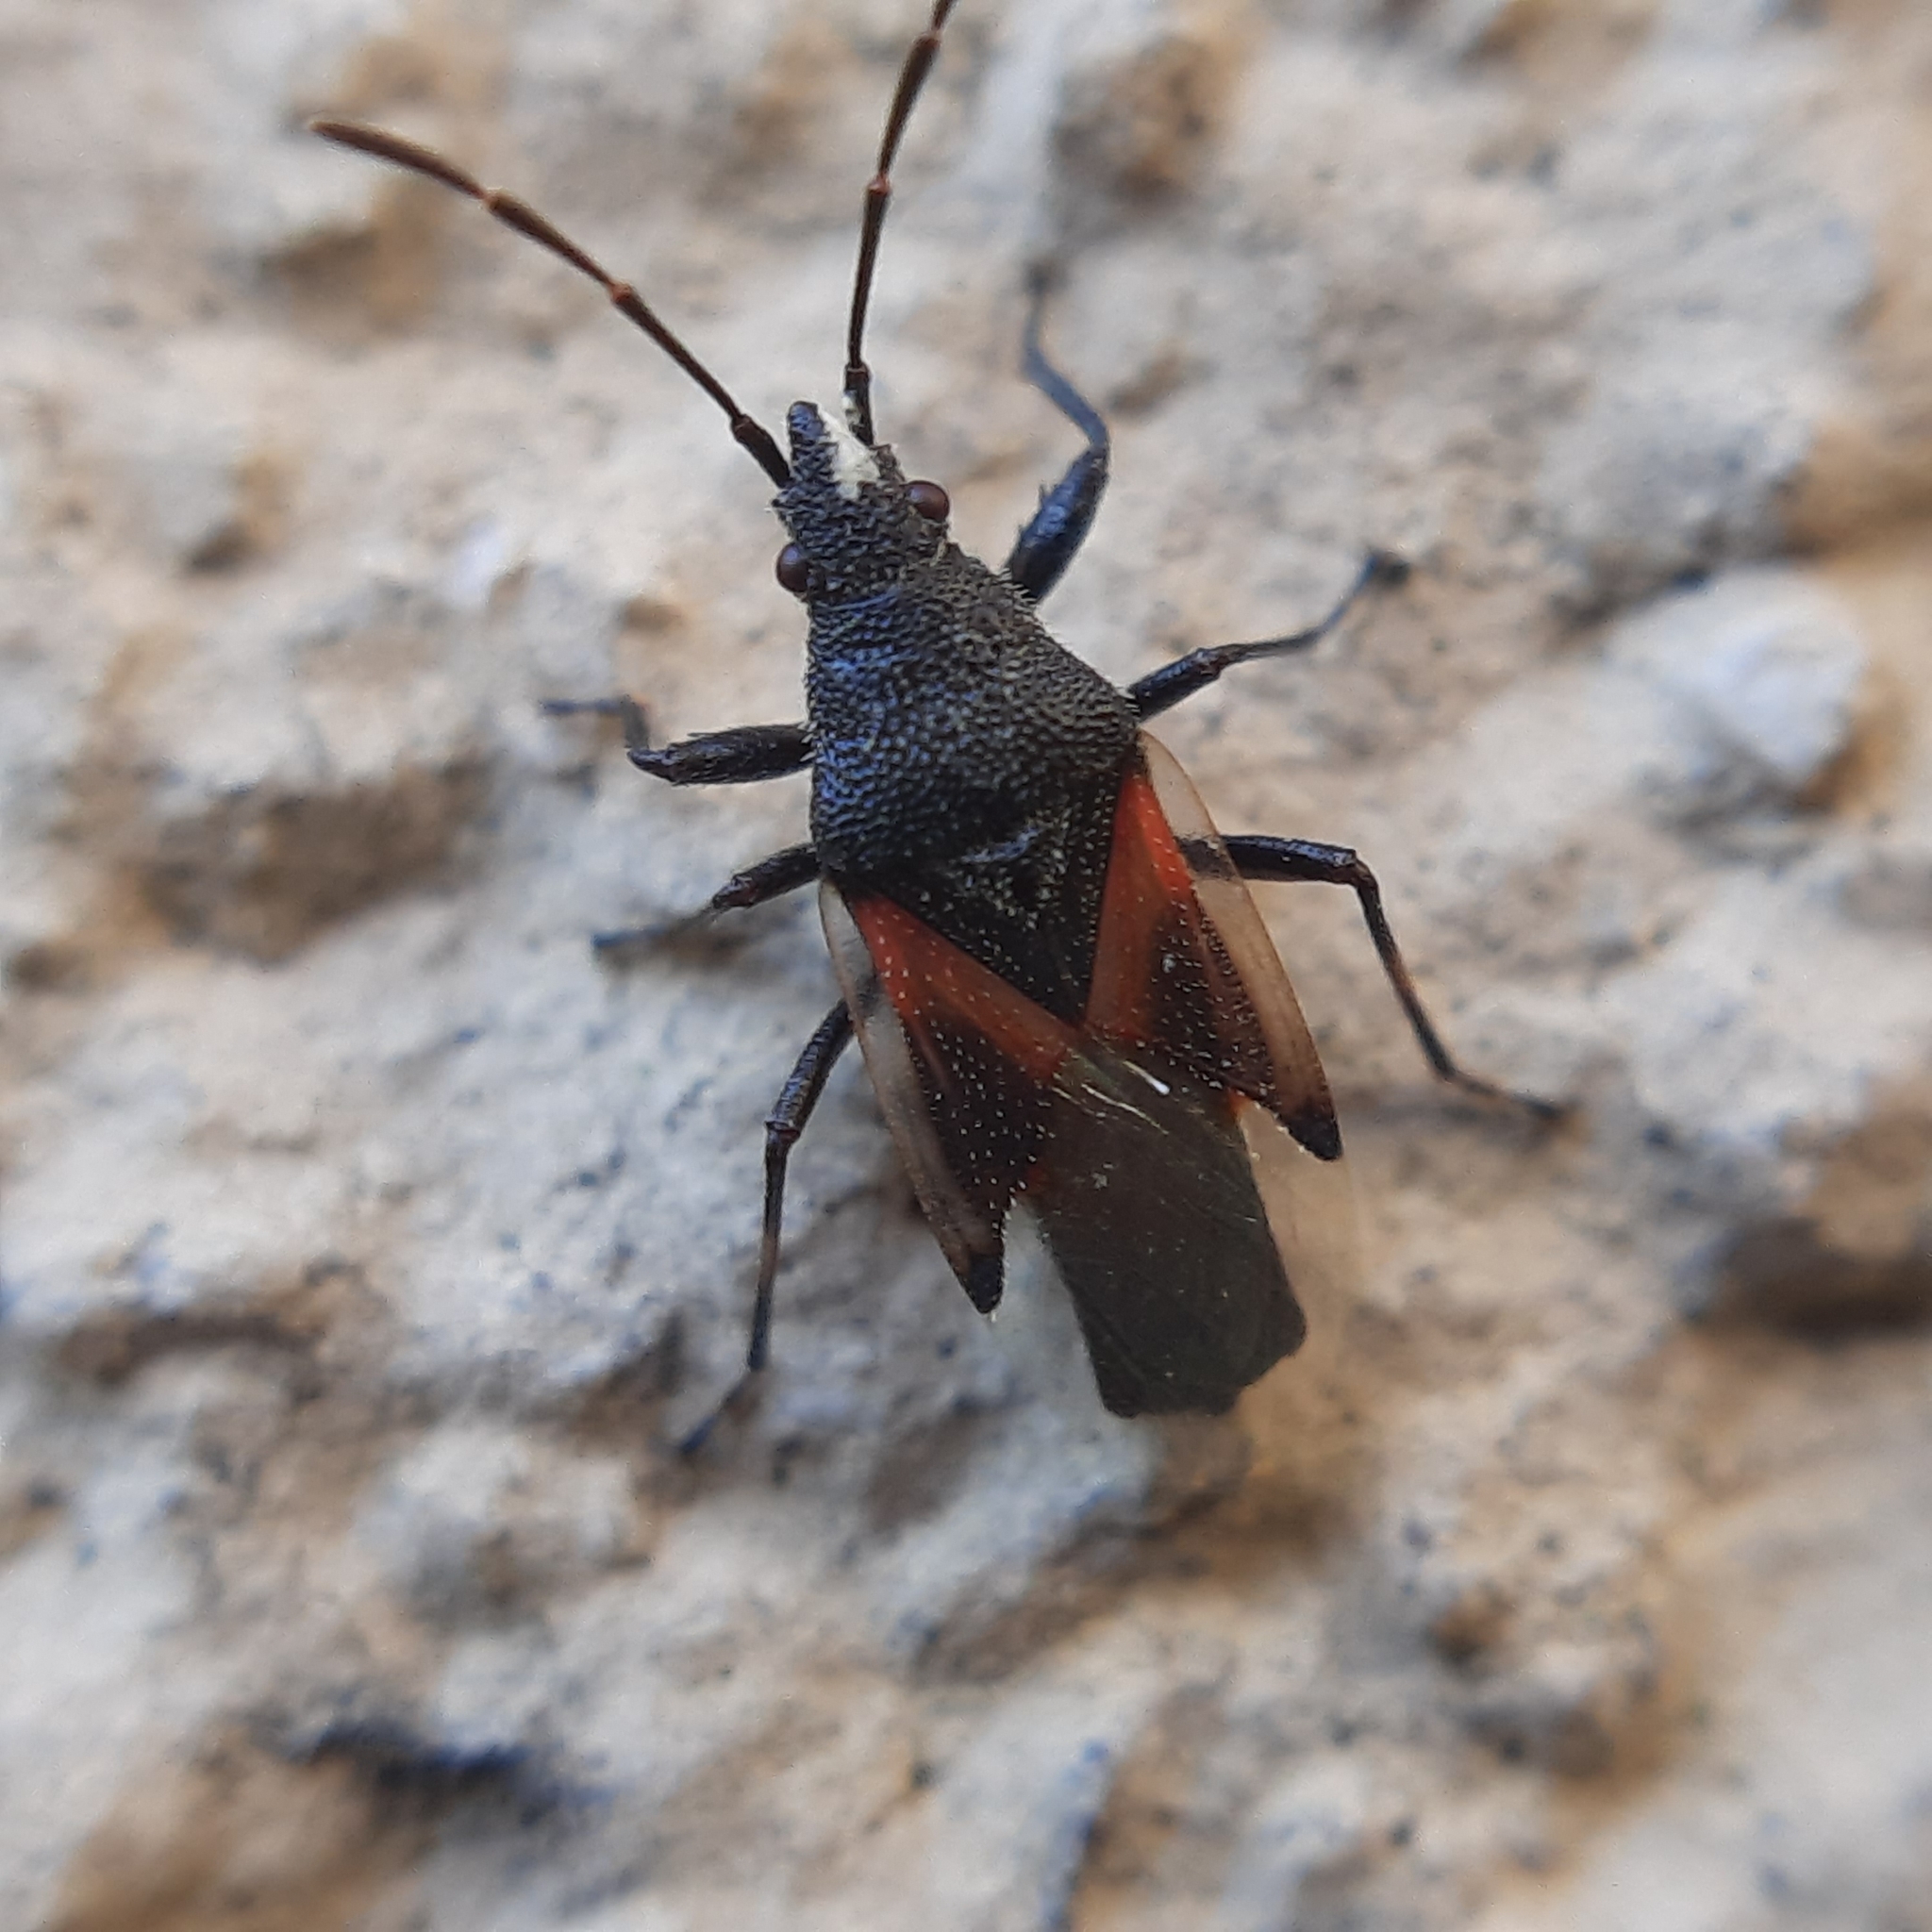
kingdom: Animalia
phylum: Arthropoda
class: Insecta
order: Hemiptera
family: Oxycarenidae
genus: Oxycarenus
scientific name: Oxycarenus lavaterae
